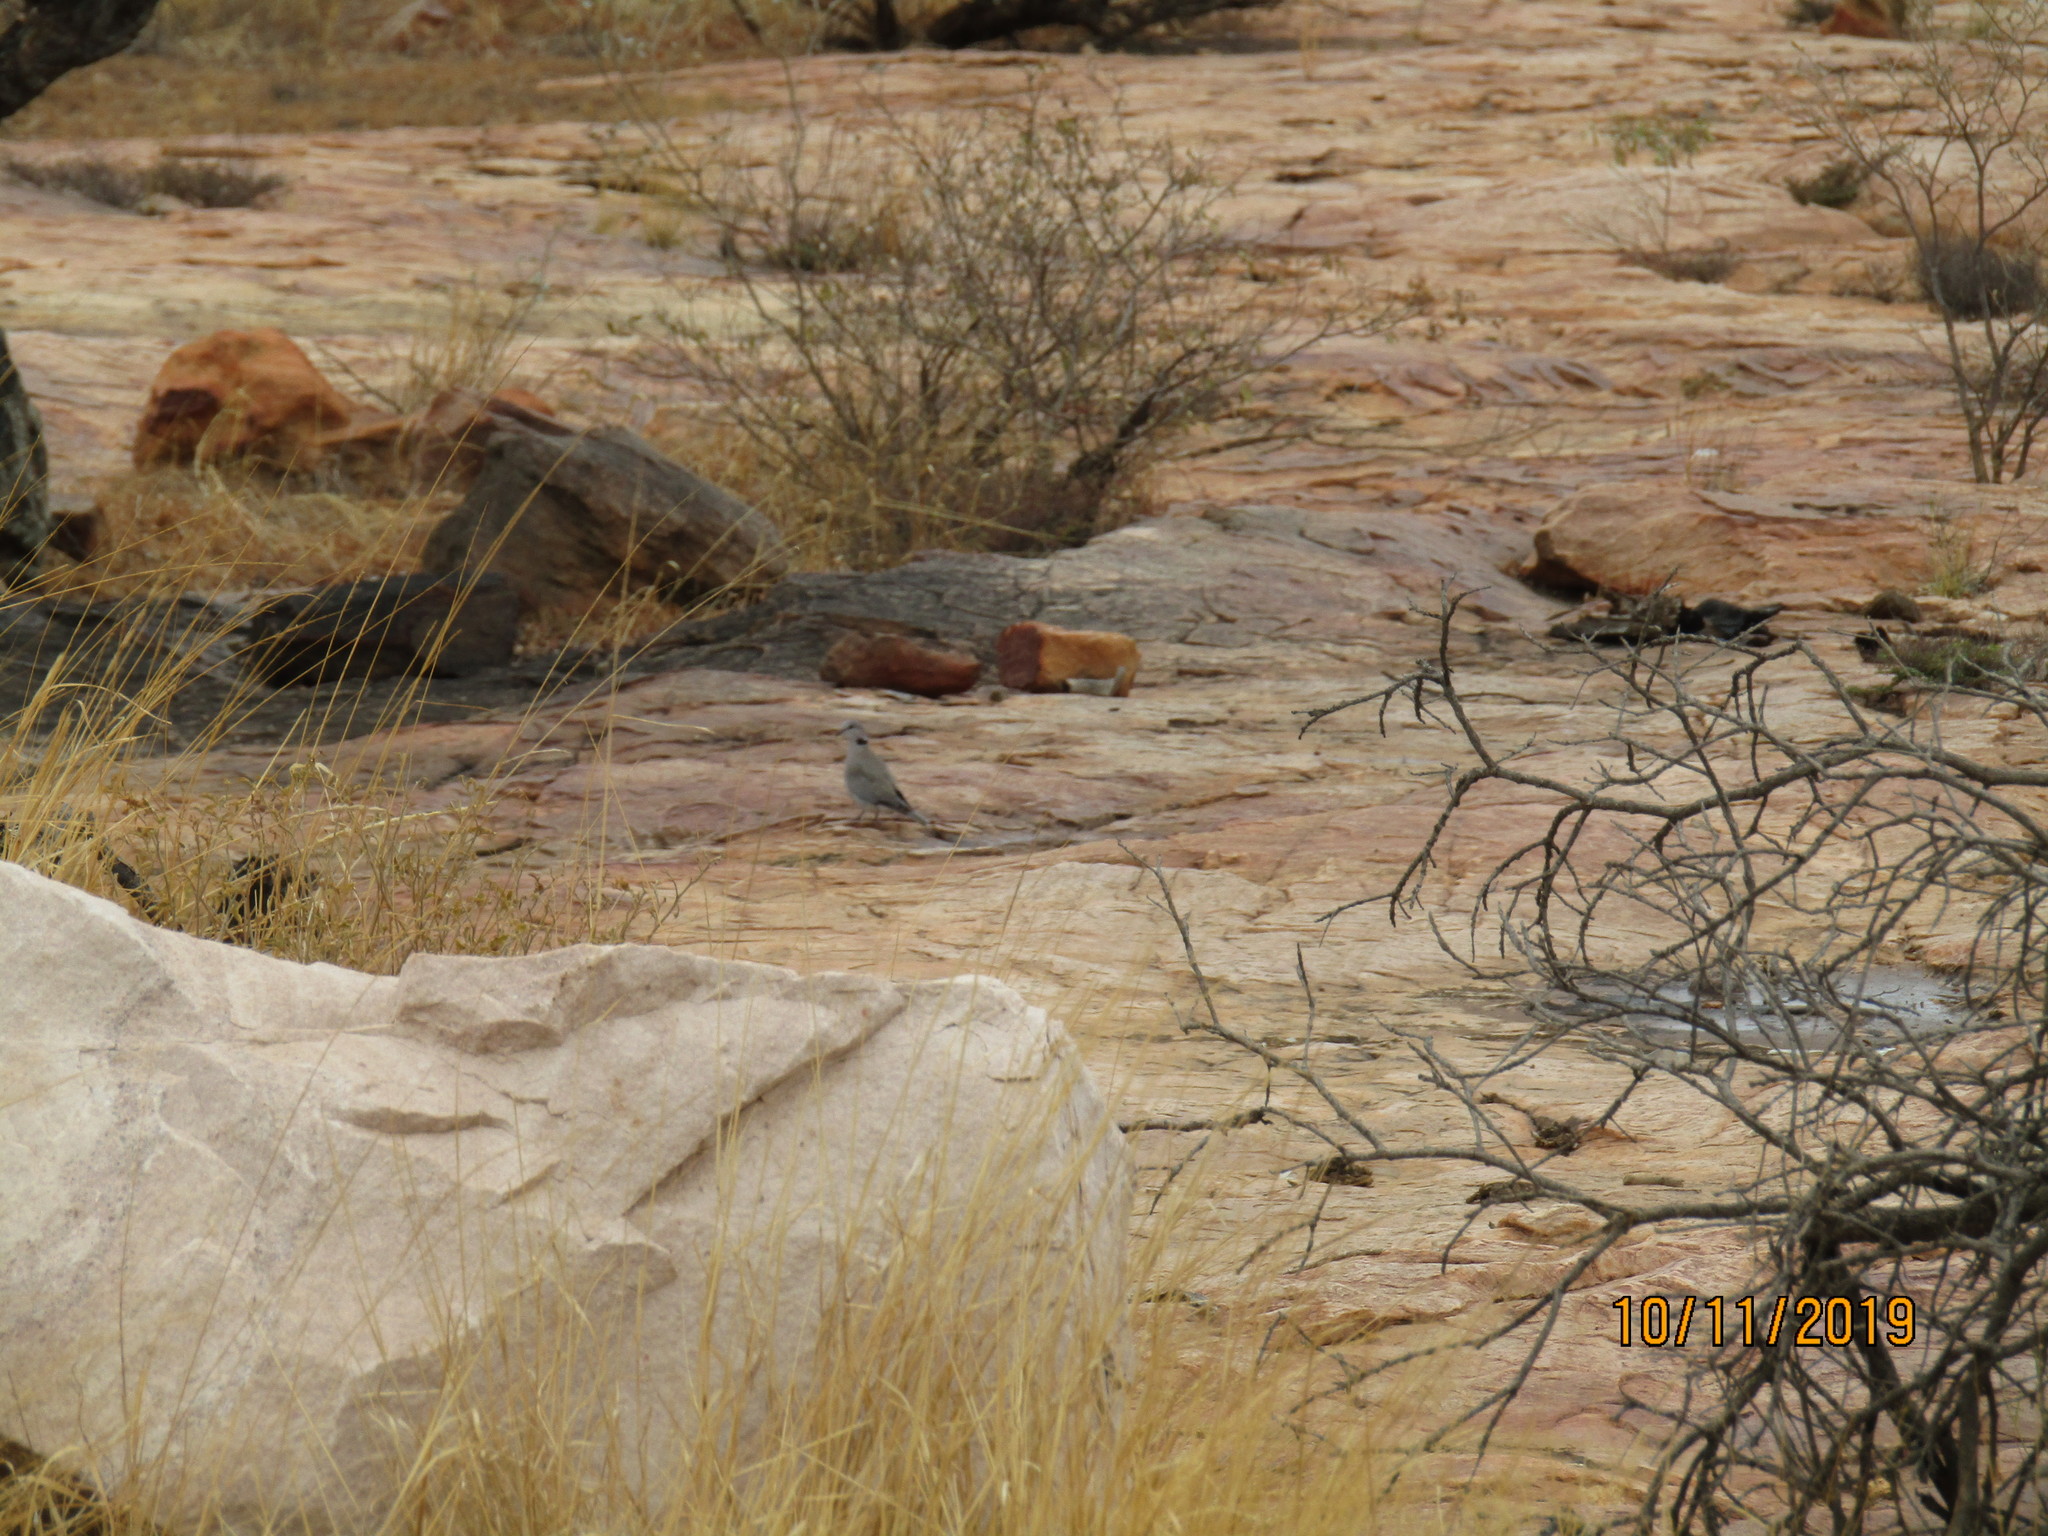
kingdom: Animalia
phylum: Chordata
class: Aves
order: Columbiformes
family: Columbidae
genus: Streptopelia
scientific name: Streptopelia capicola
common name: Ring-necked dove
